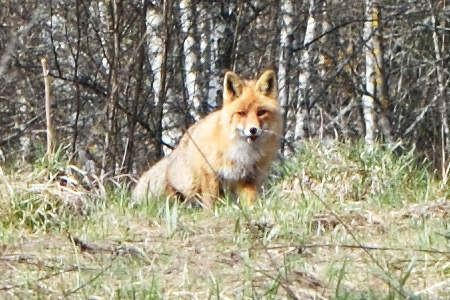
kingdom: Animalia
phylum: Chordata
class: Mammalia
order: Carnivora
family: Canidae
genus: Vulpes
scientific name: Vulpes vulpes
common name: Red fox
